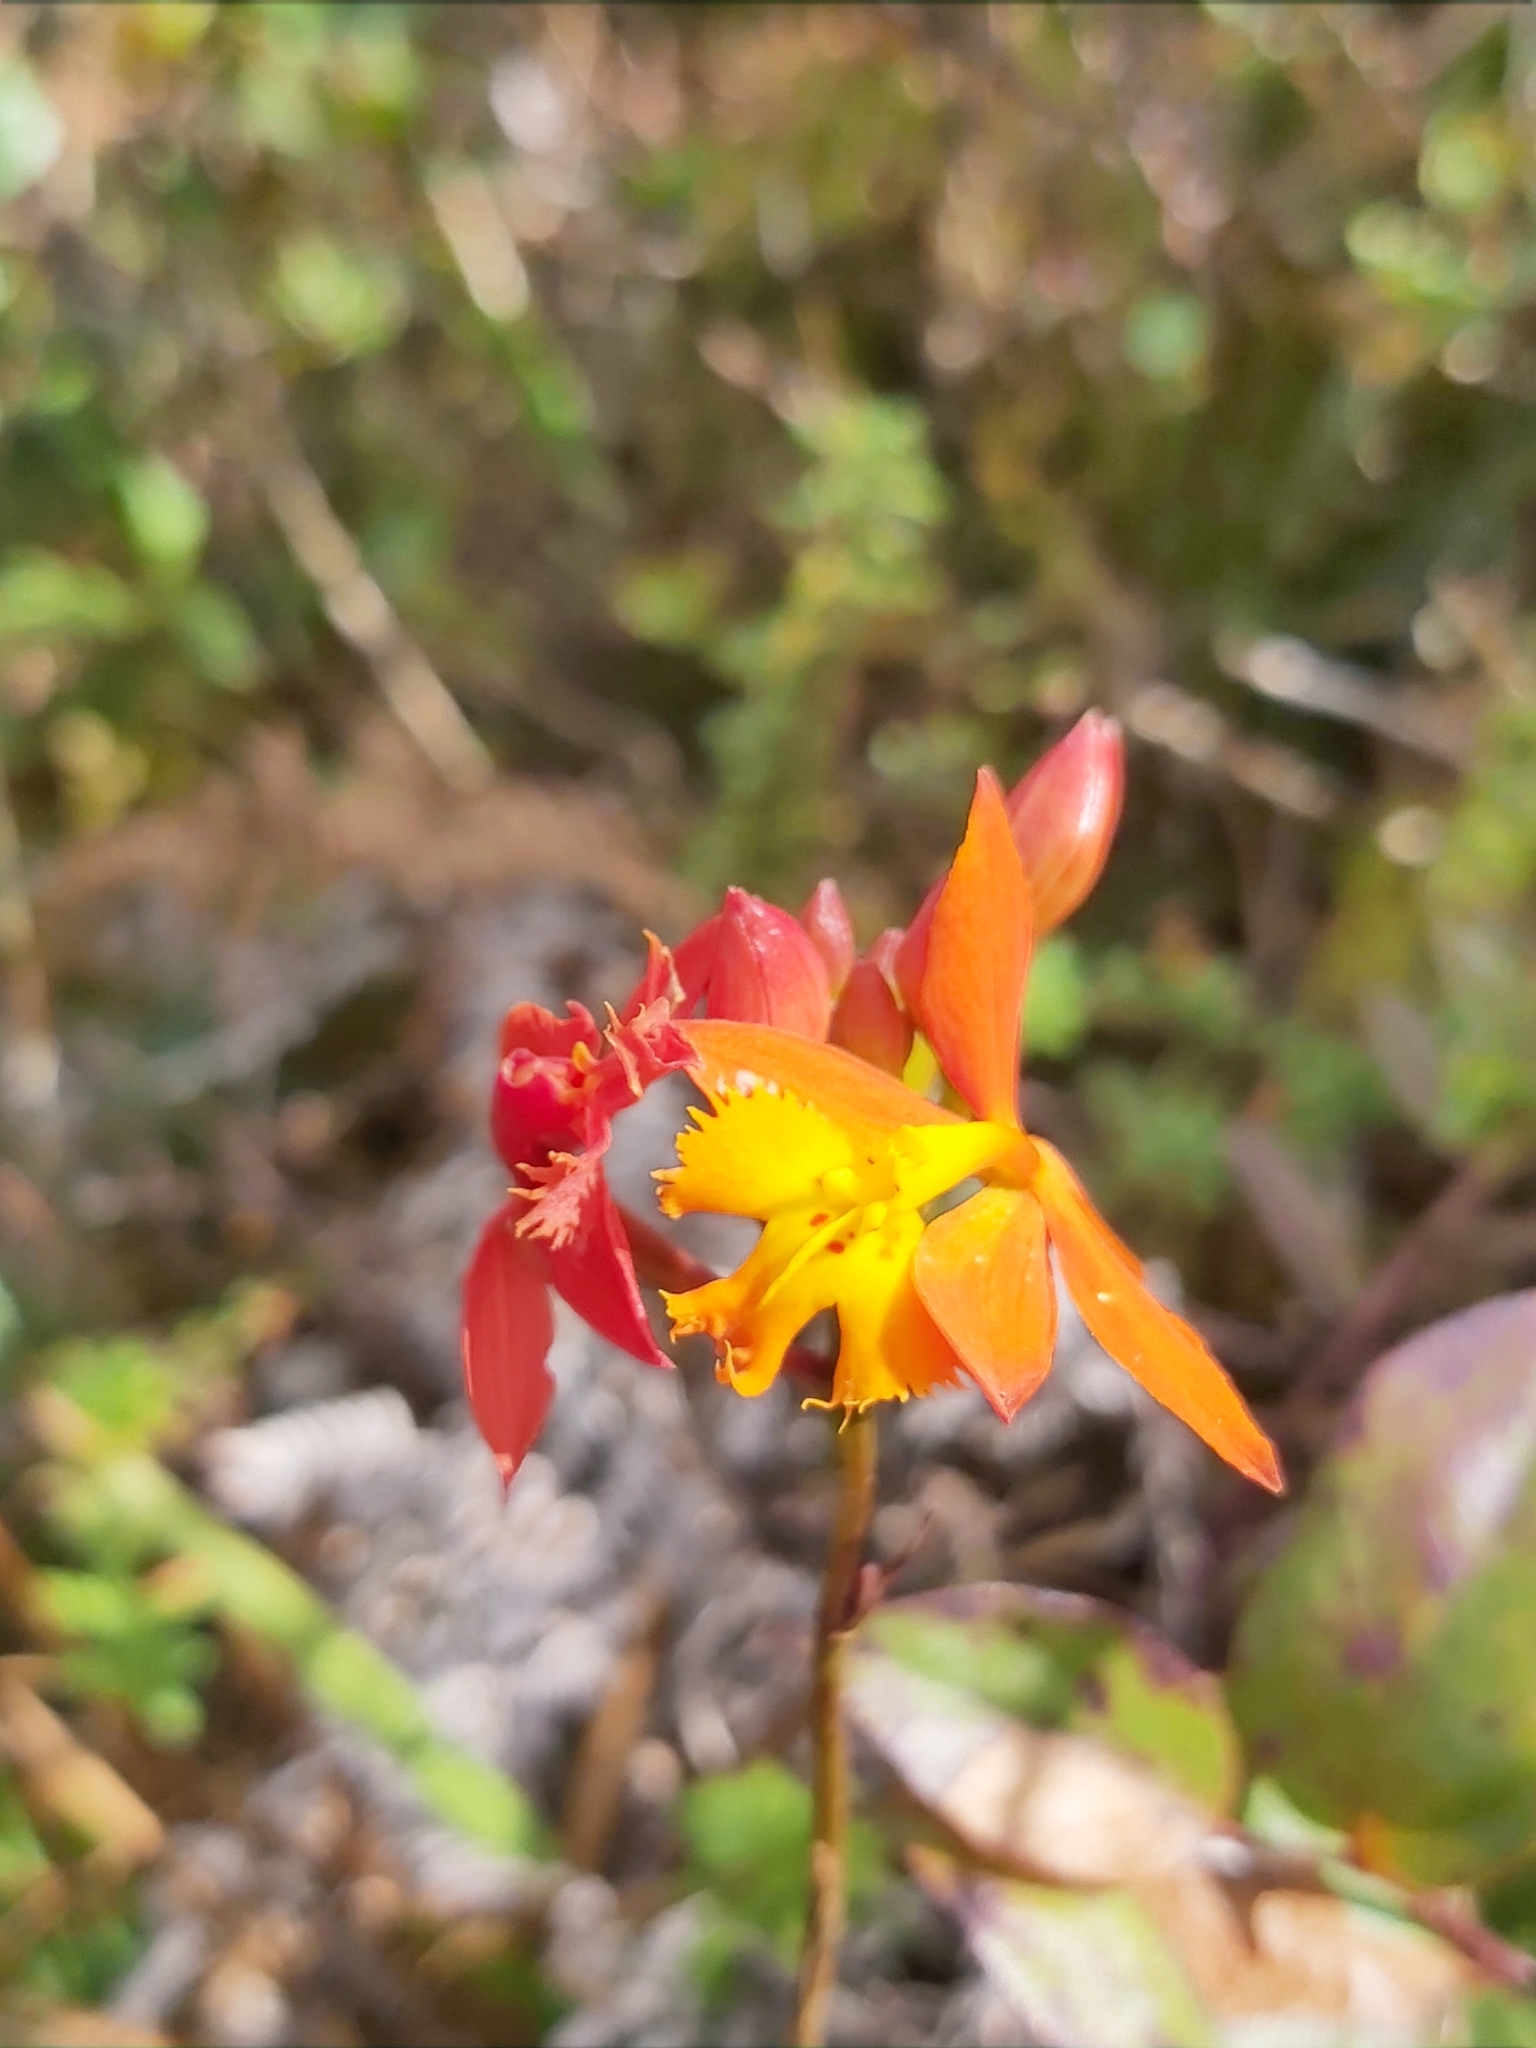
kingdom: Plantae
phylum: Tracheophyta
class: Liliopsida
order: Asparagales
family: Orchidaceae
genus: Epidendrum
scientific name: Epidendrum radicans
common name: Fire star orchid
